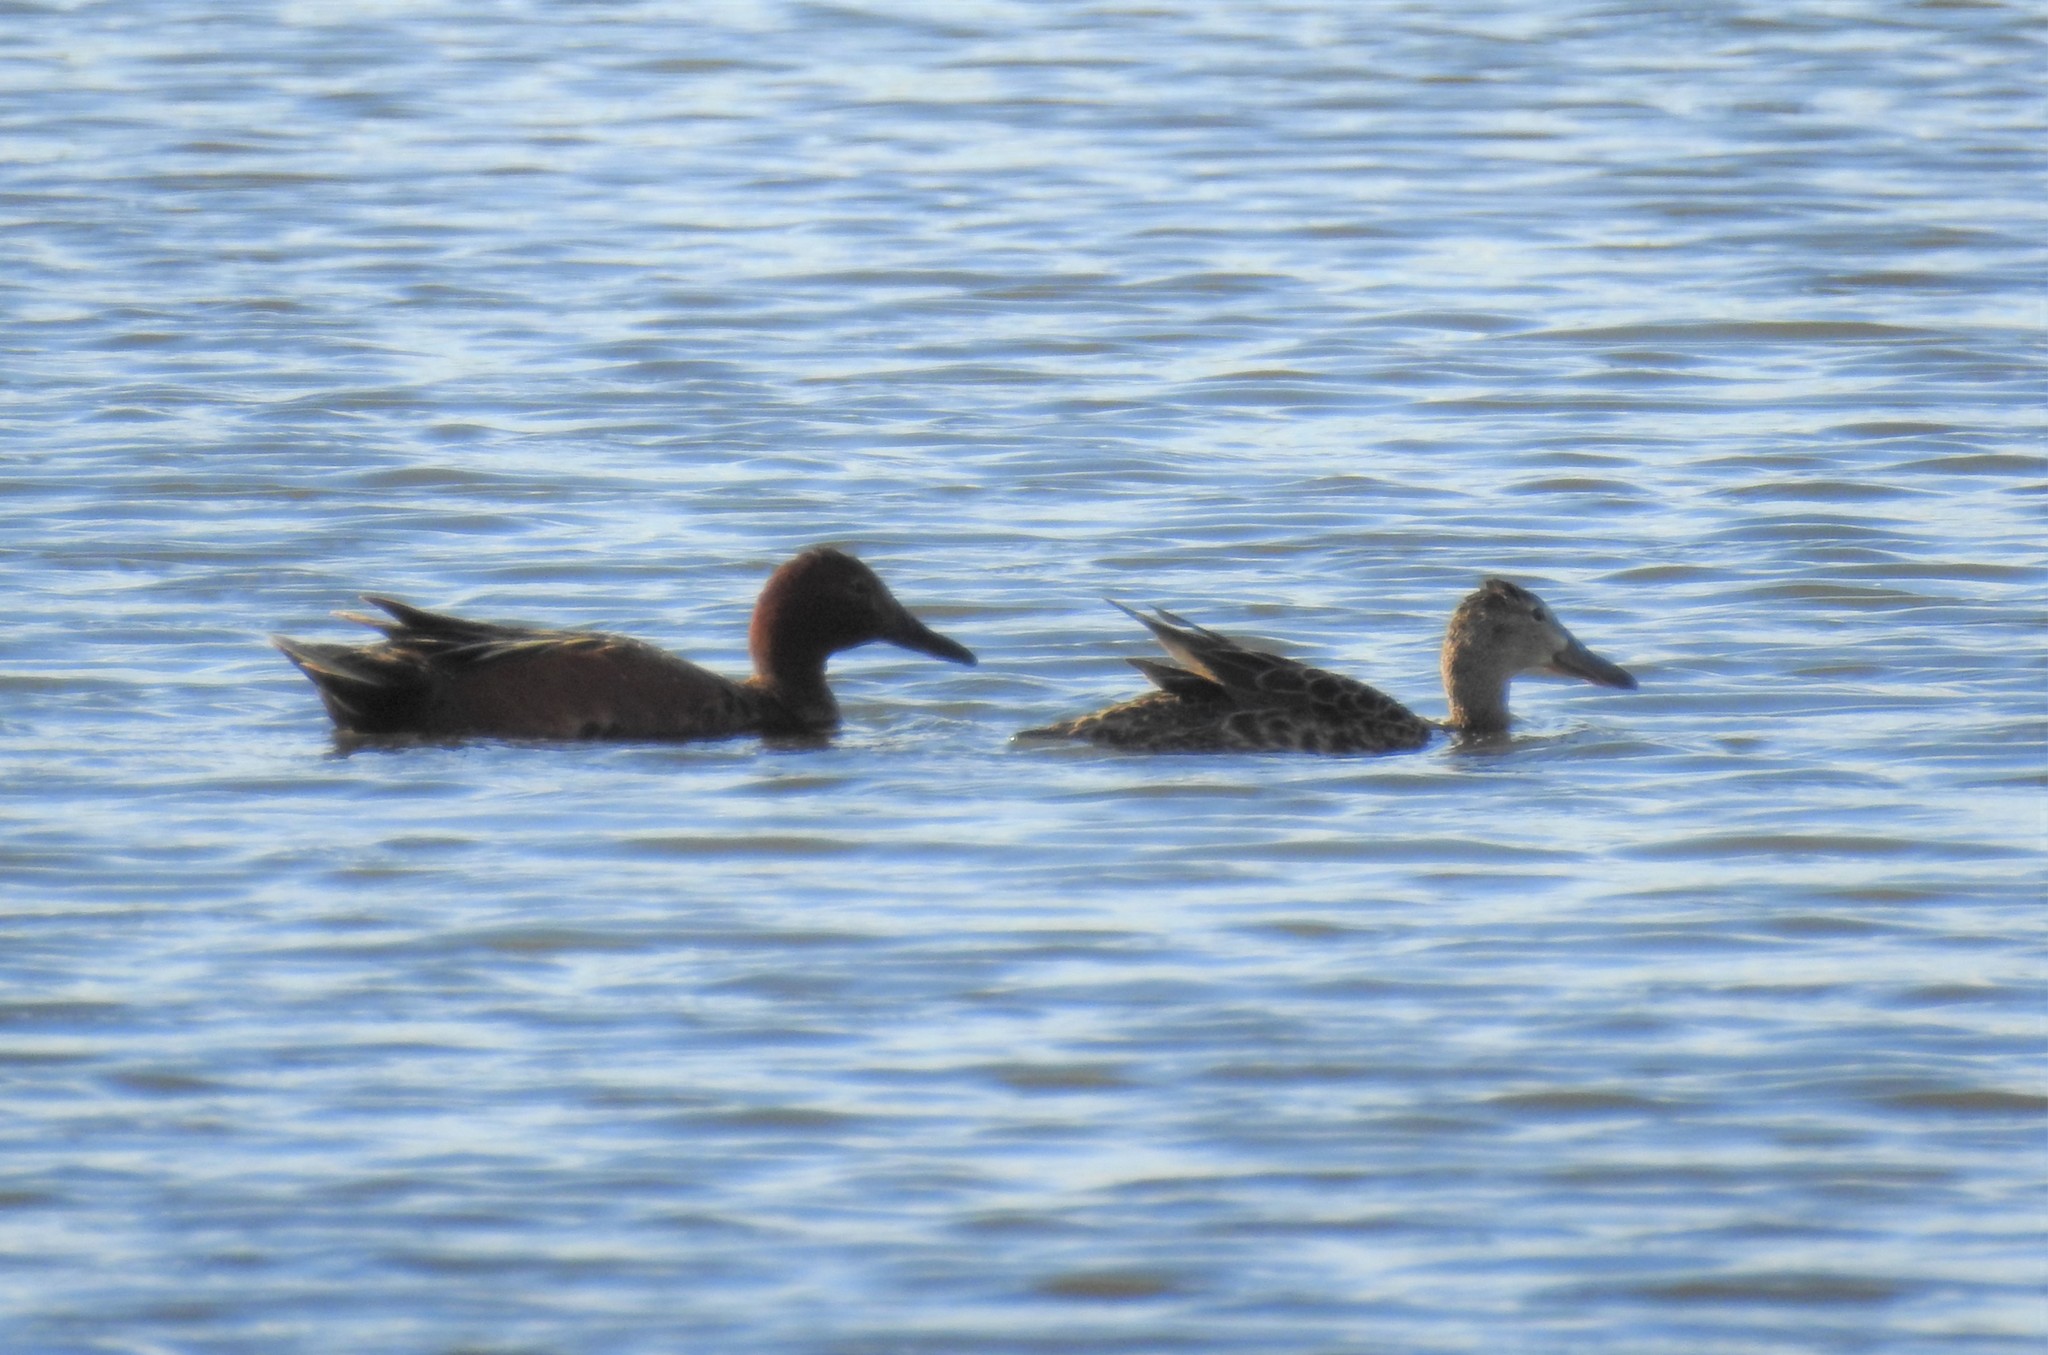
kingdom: Animalia
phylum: Chordata
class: Aves
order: Anseriformes
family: Anatidae
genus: Spatula
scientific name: Spatula cyanoptera
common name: Cinnamon teal
